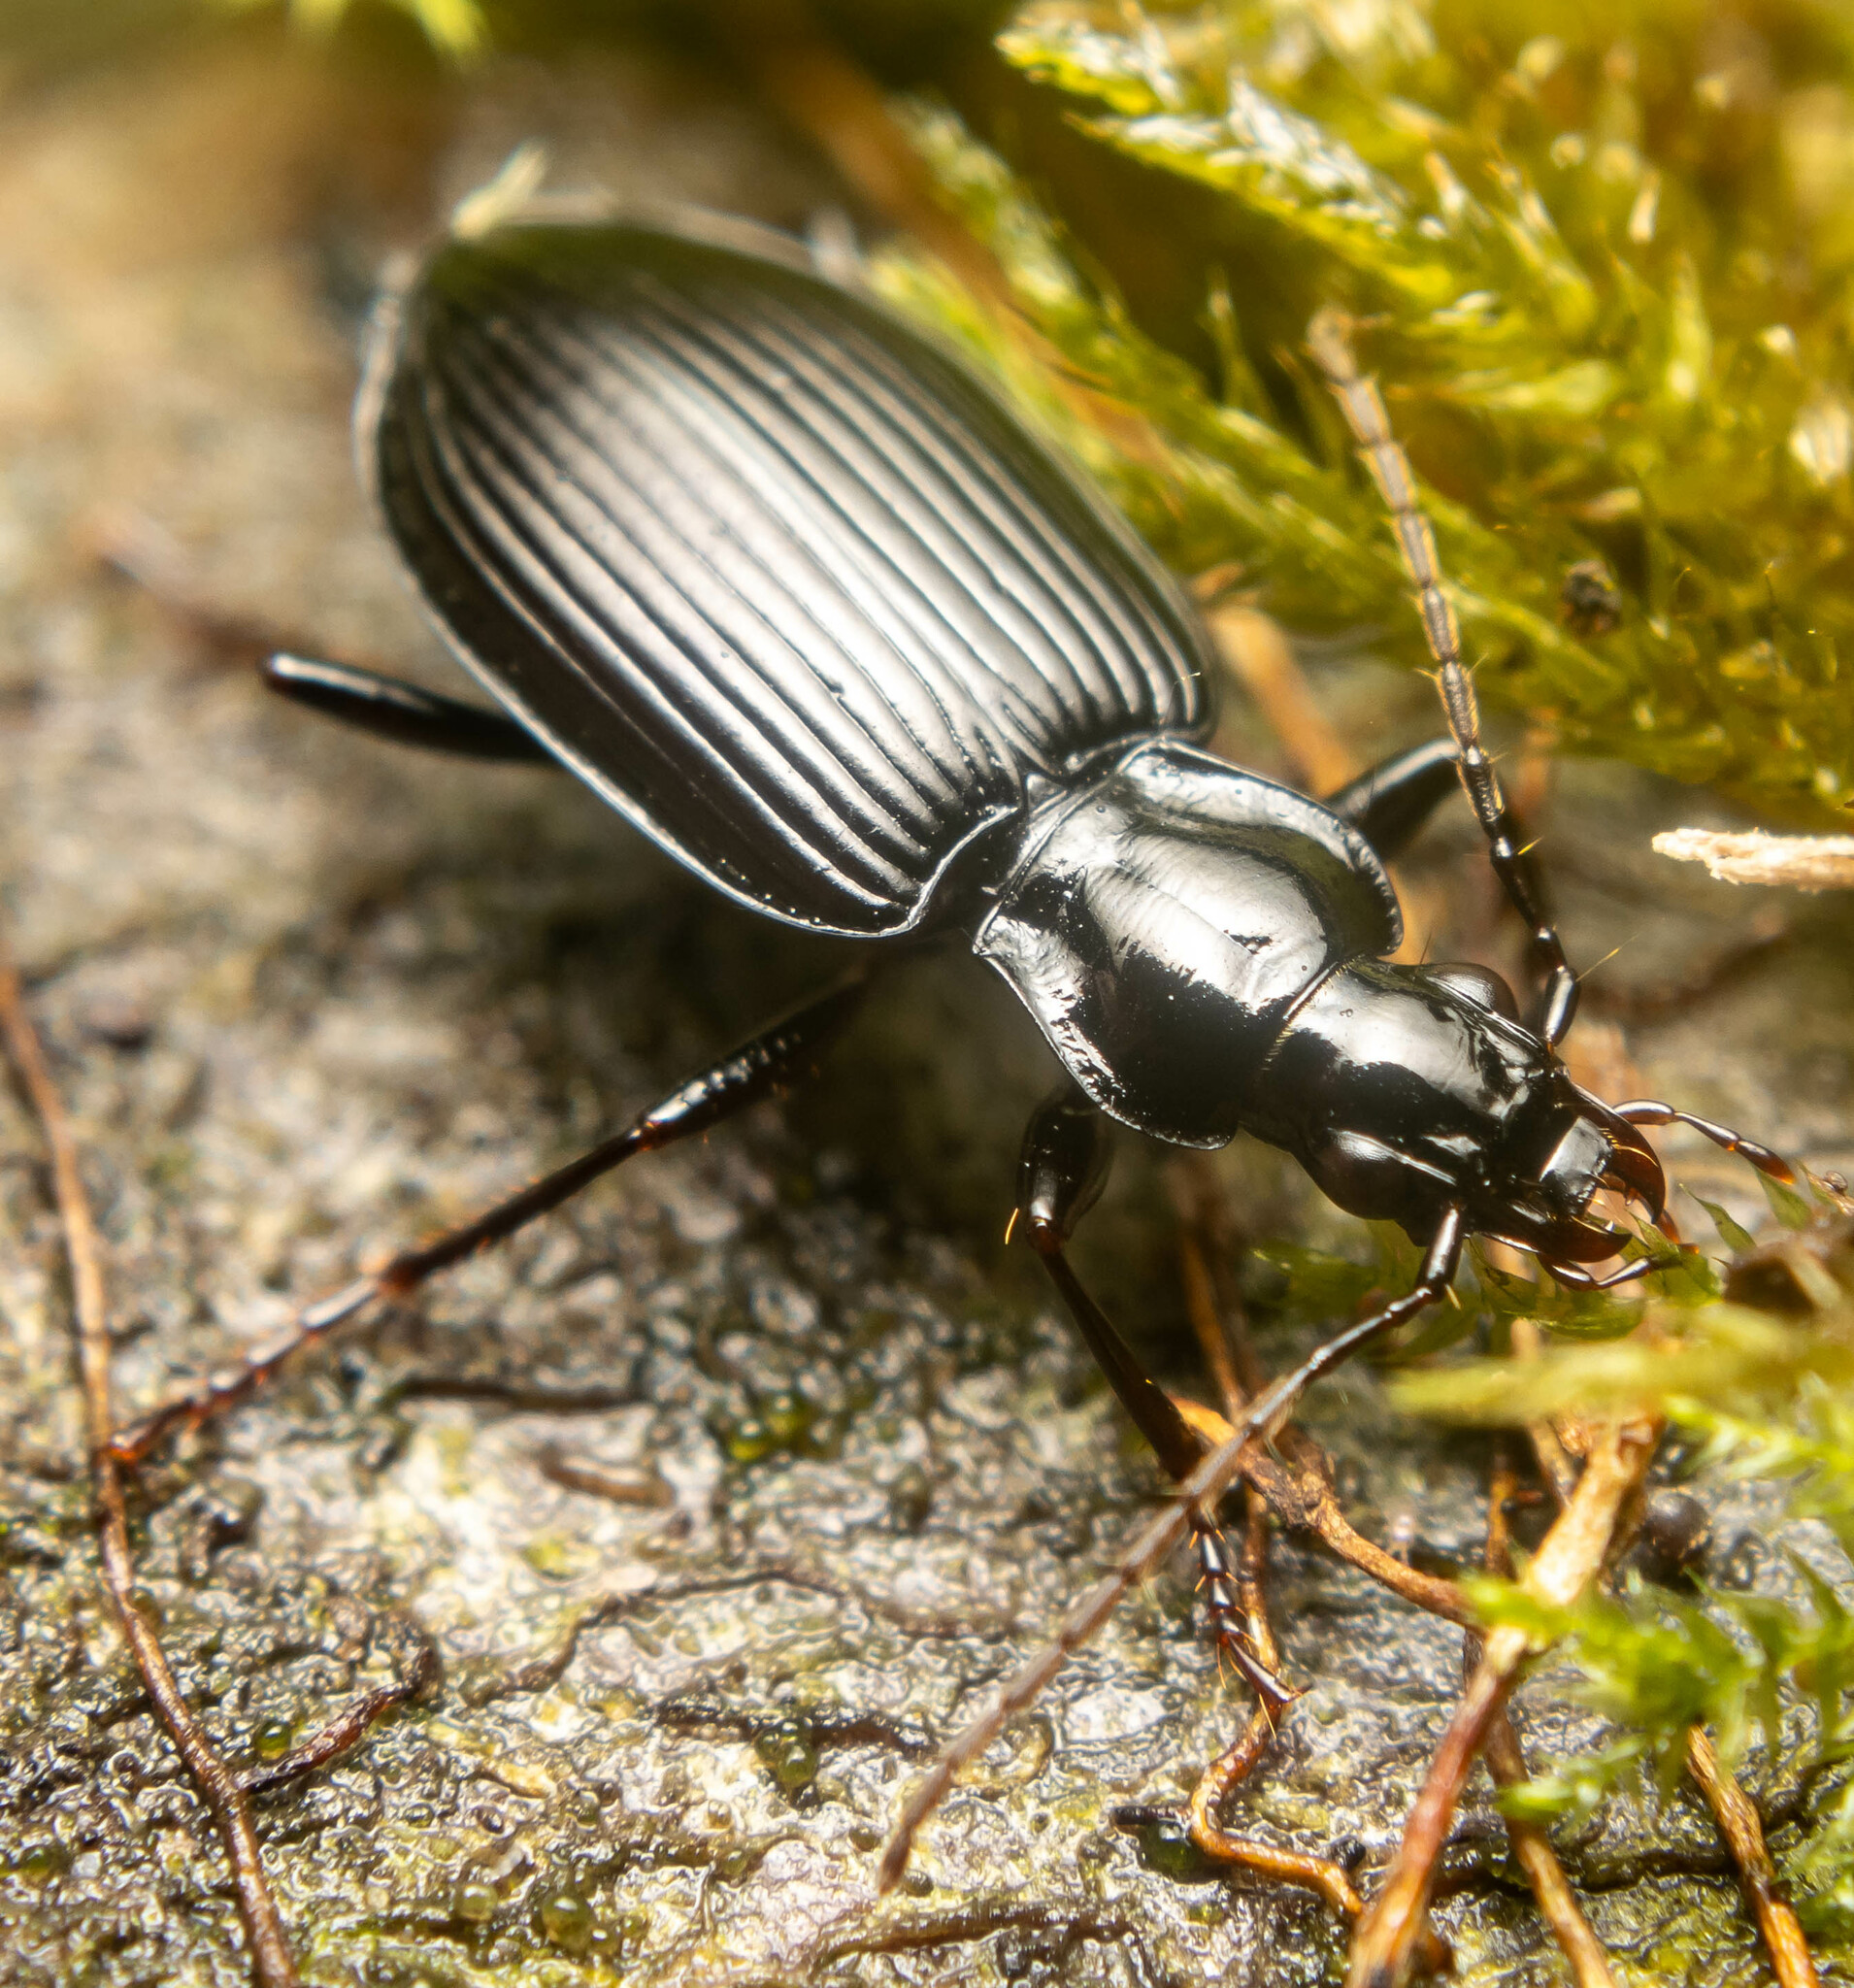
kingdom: Animalia
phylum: Arthropoda
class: Insecta
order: Coleoptera
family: Carabidae
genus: Platynus
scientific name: Platynus assimilis
